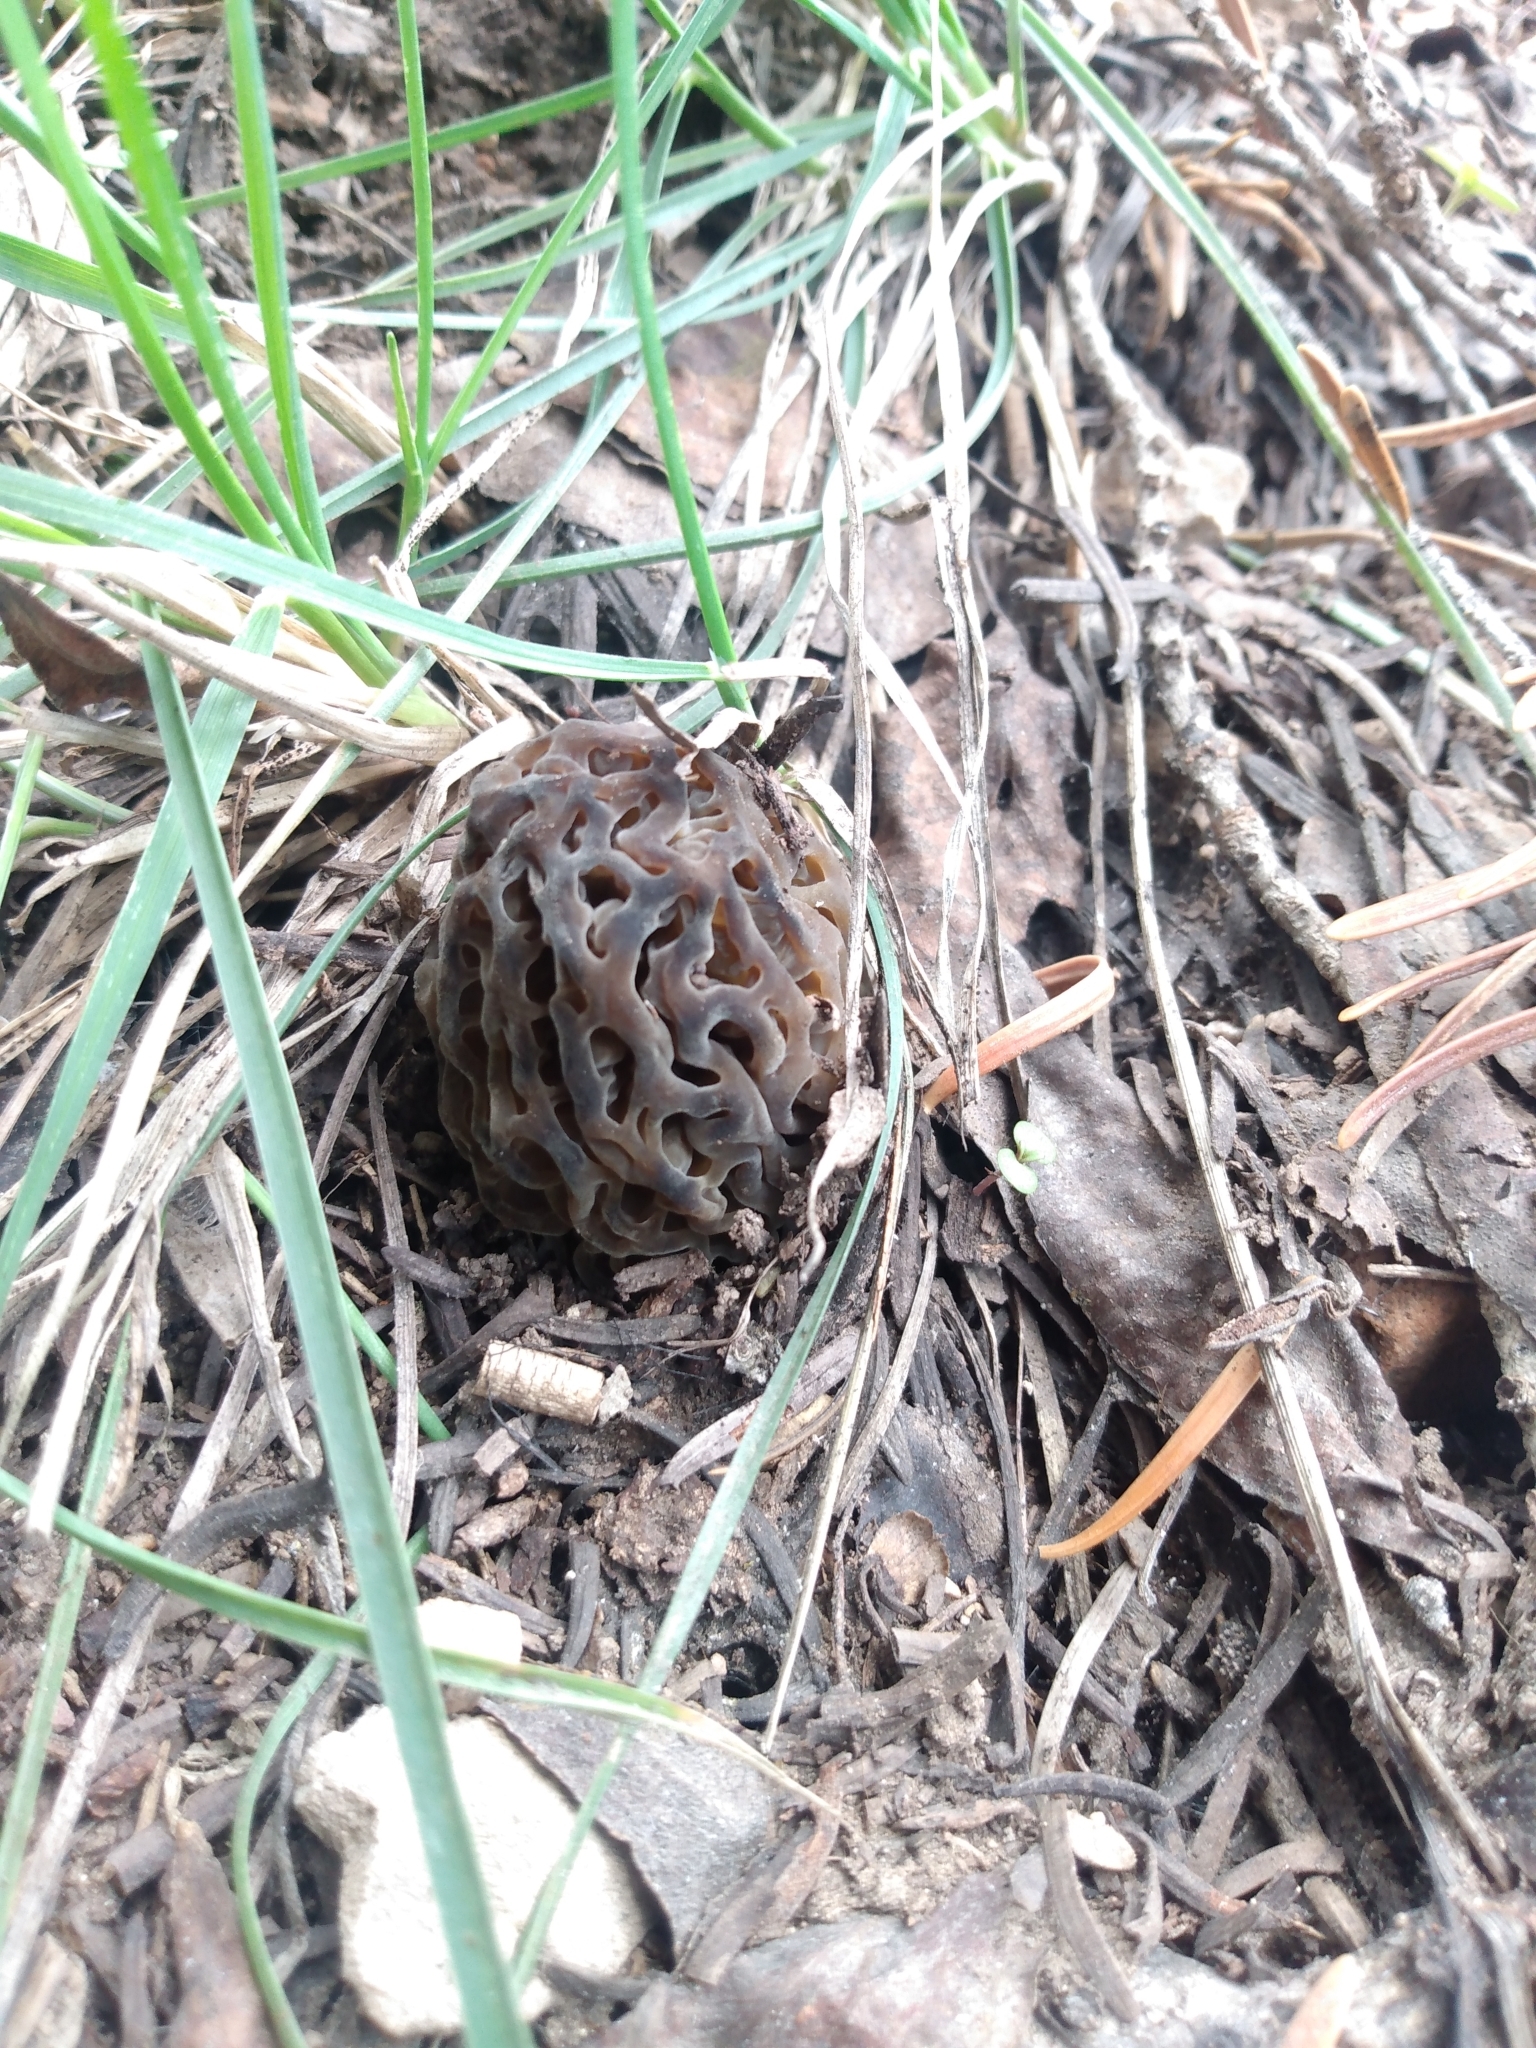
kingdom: Fungi
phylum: Ascomycota
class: Pezizomycetes
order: Pezizales
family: Morchellaceae
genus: Morchella
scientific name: Morchella snyderi
